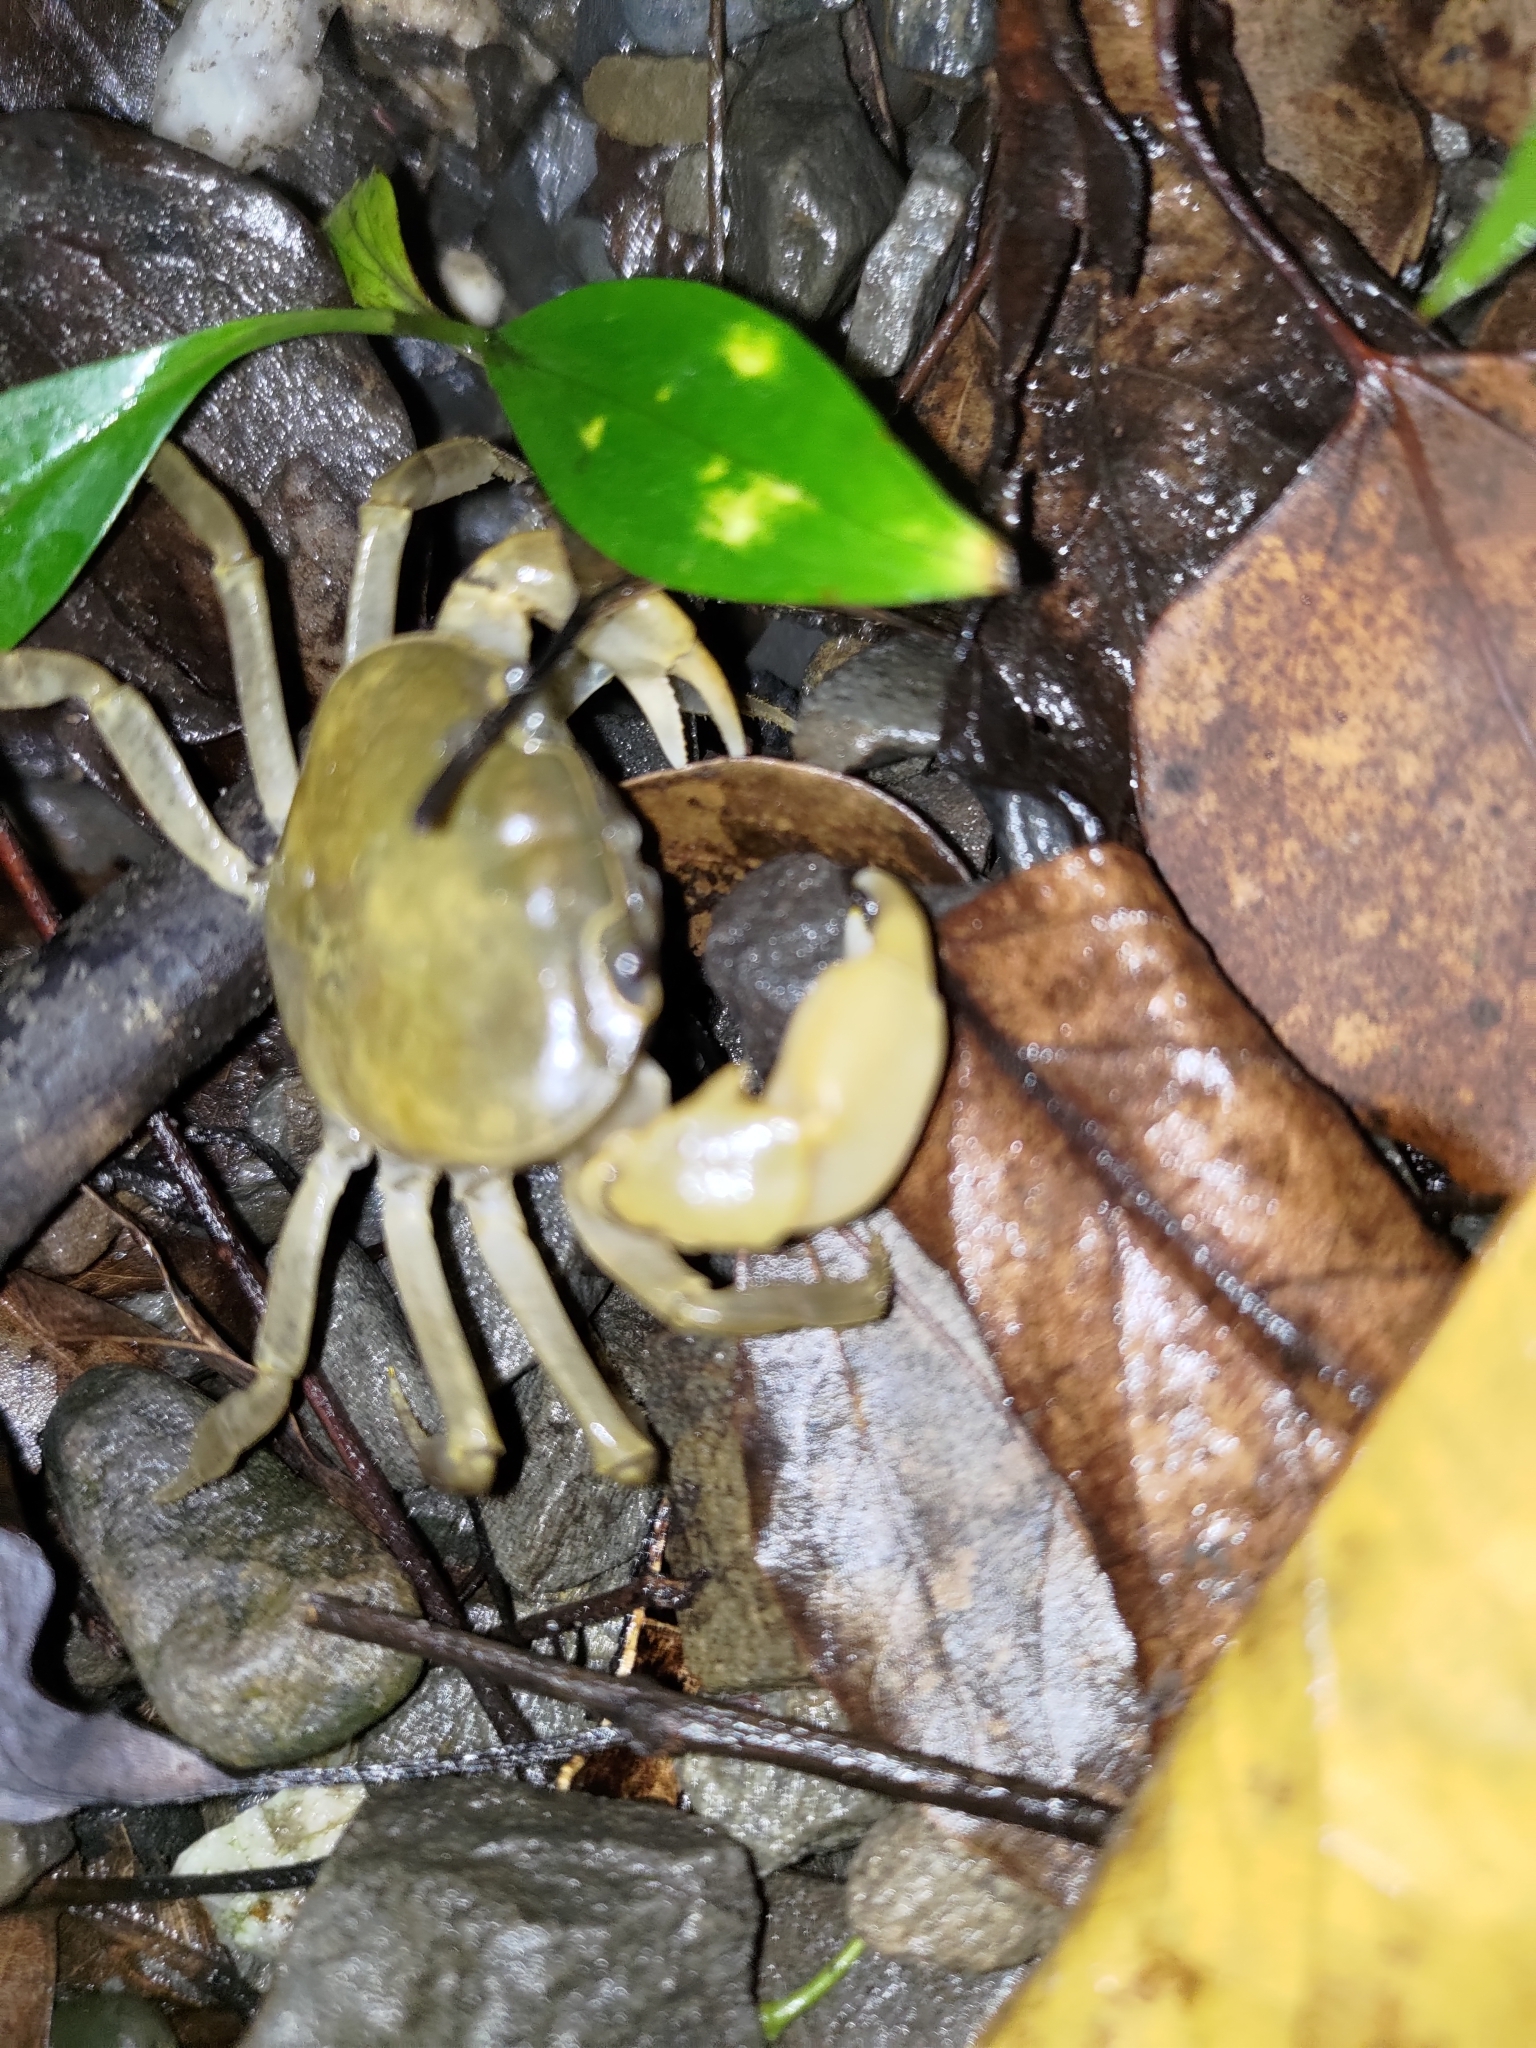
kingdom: Animalia
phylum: Arthropoda
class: Malacostraca
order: Decapoda
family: Potamidae
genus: Geothelphusa
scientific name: Geothelphusa olea
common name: Yellow-green crab
